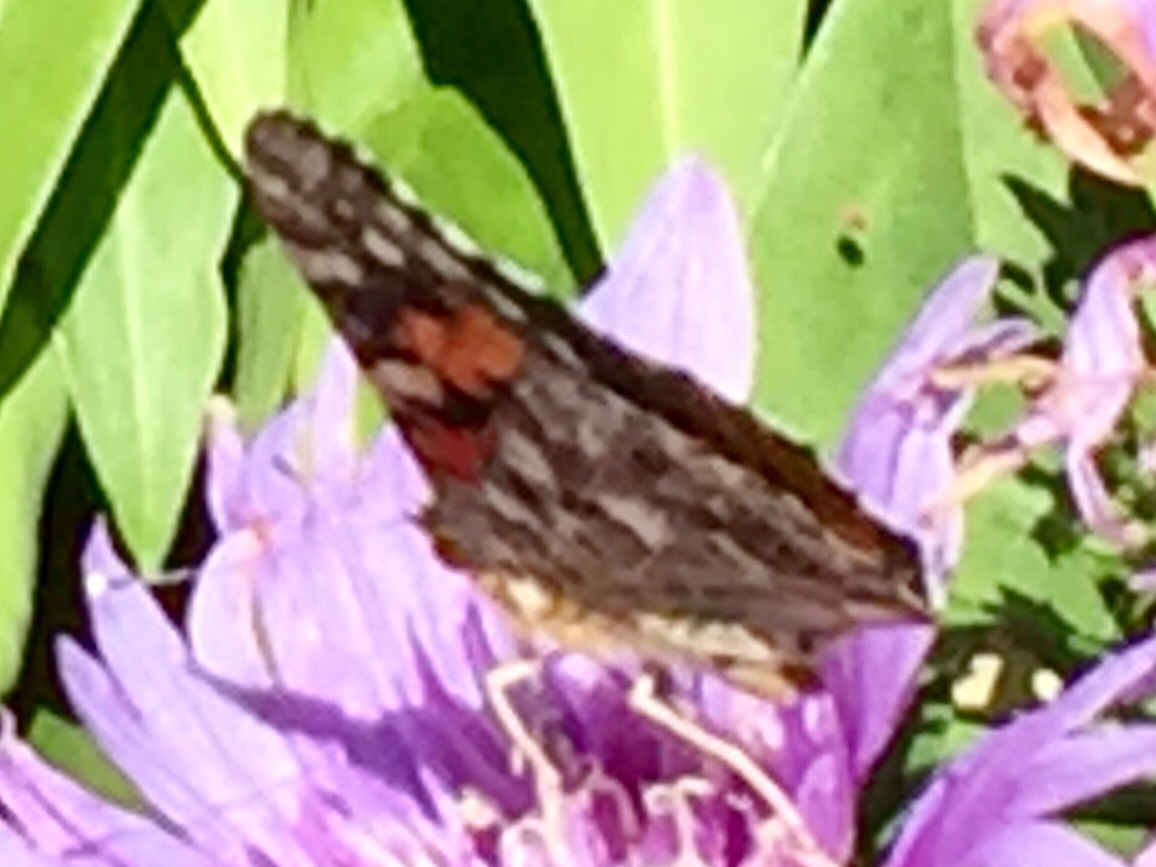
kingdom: Animalia
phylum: Arthropoda
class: Insecta
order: Lepidoptera
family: Nymphalidae
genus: Vanessa
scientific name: Vanessa cardui
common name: Painted lady
